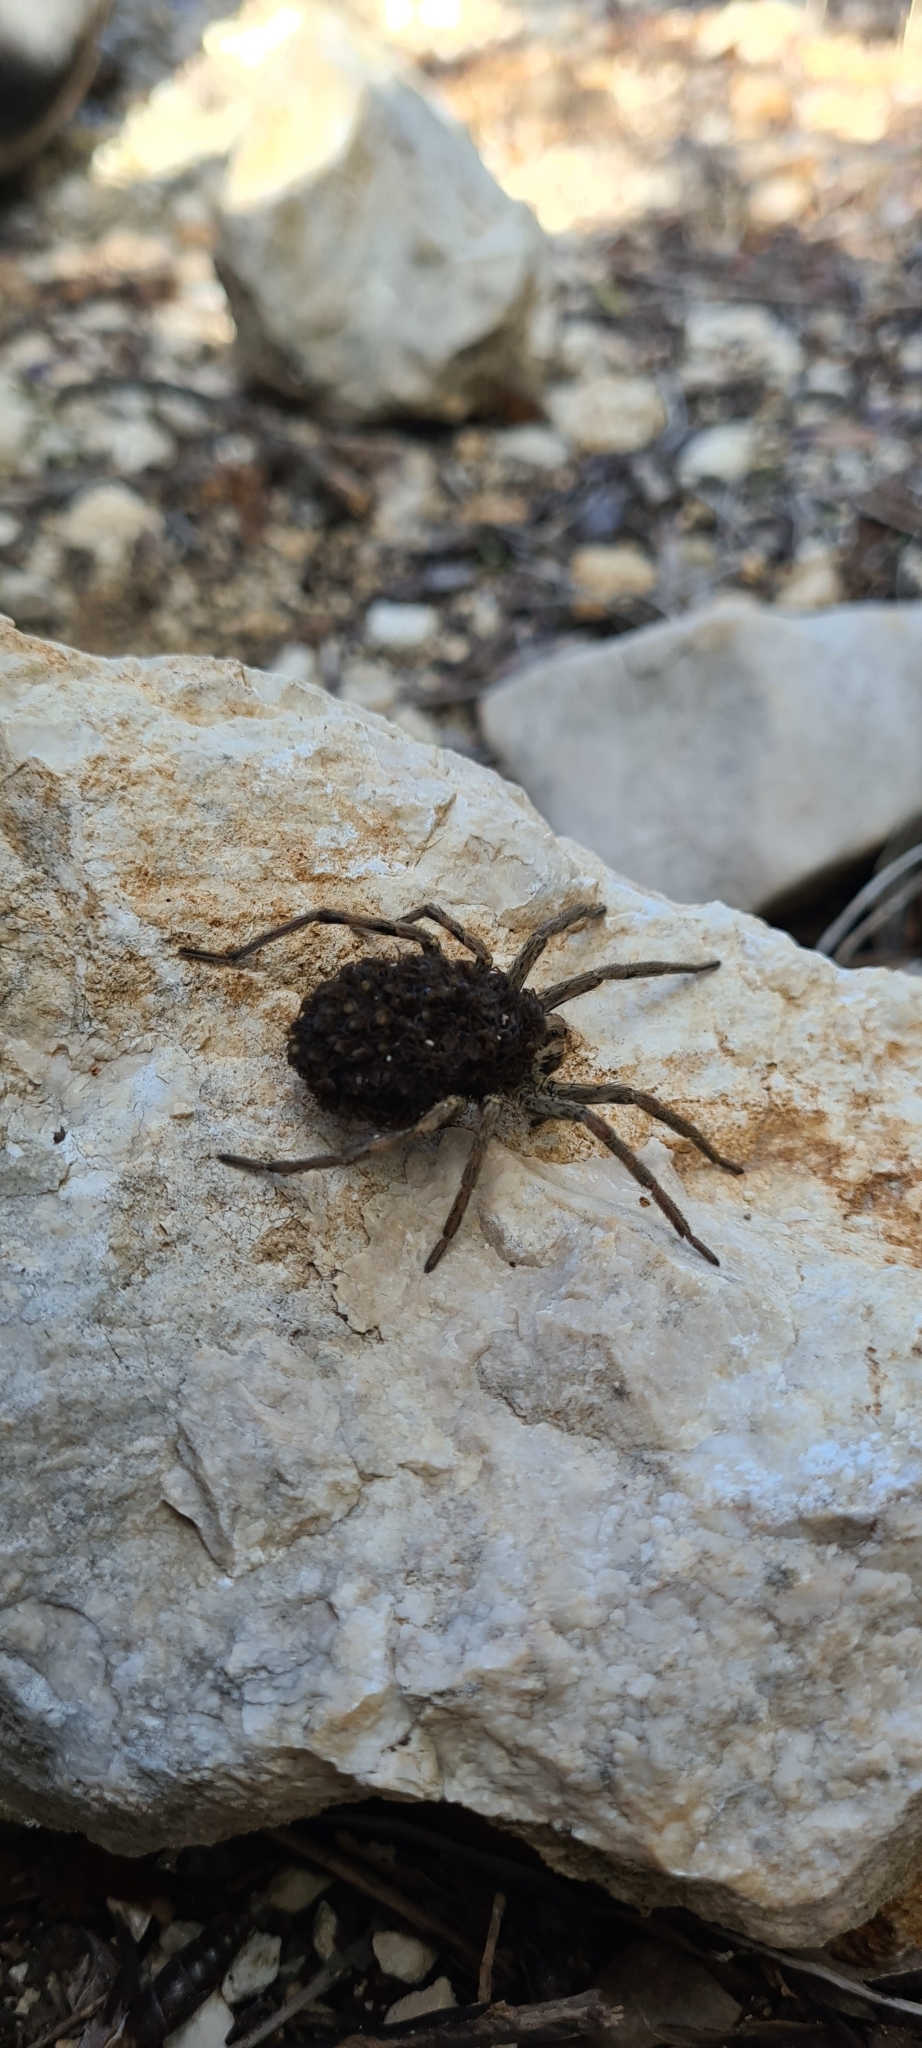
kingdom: Animalia
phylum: Arthropoda
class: Arachnida
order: Araneae
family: Lycosidae
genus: Hogna
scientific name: Hogna radiata
